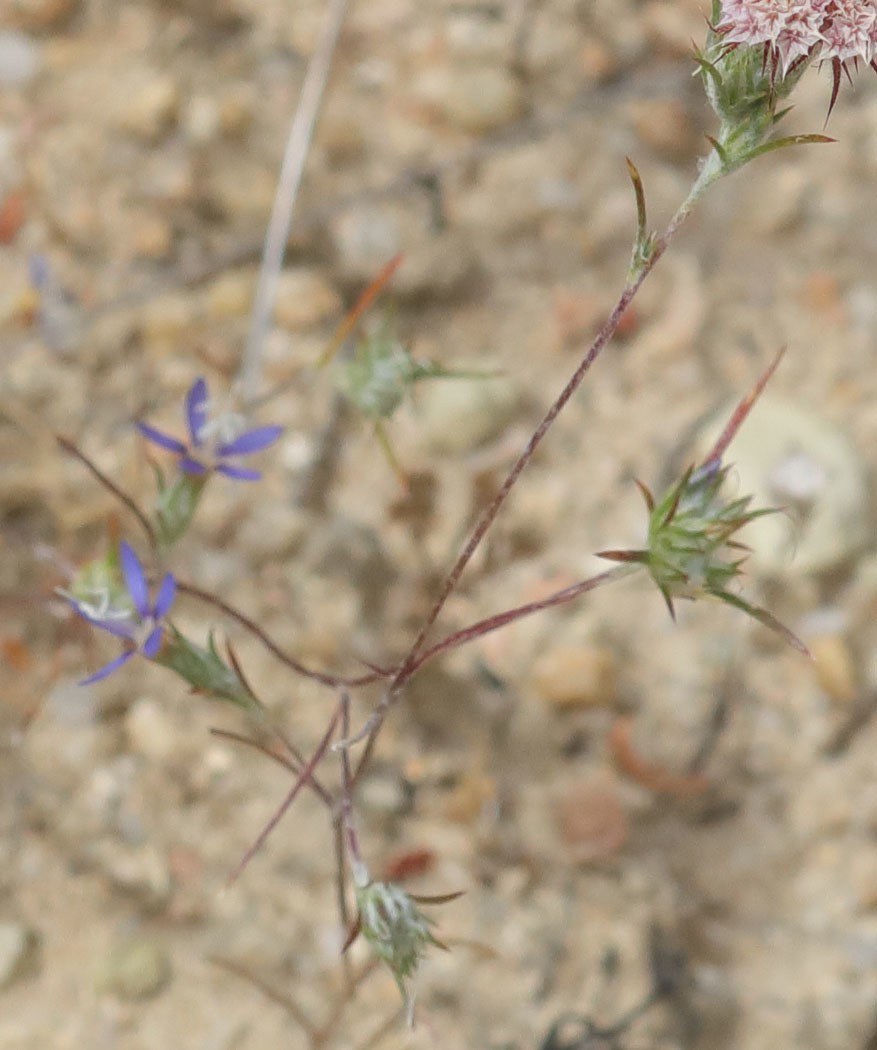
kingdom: Plantae
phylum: Tracheophyta
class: Magnoliopsida
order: Ericales
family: Polemoniaceae
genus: Eriastrum
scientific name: Eriastrum virgatum
